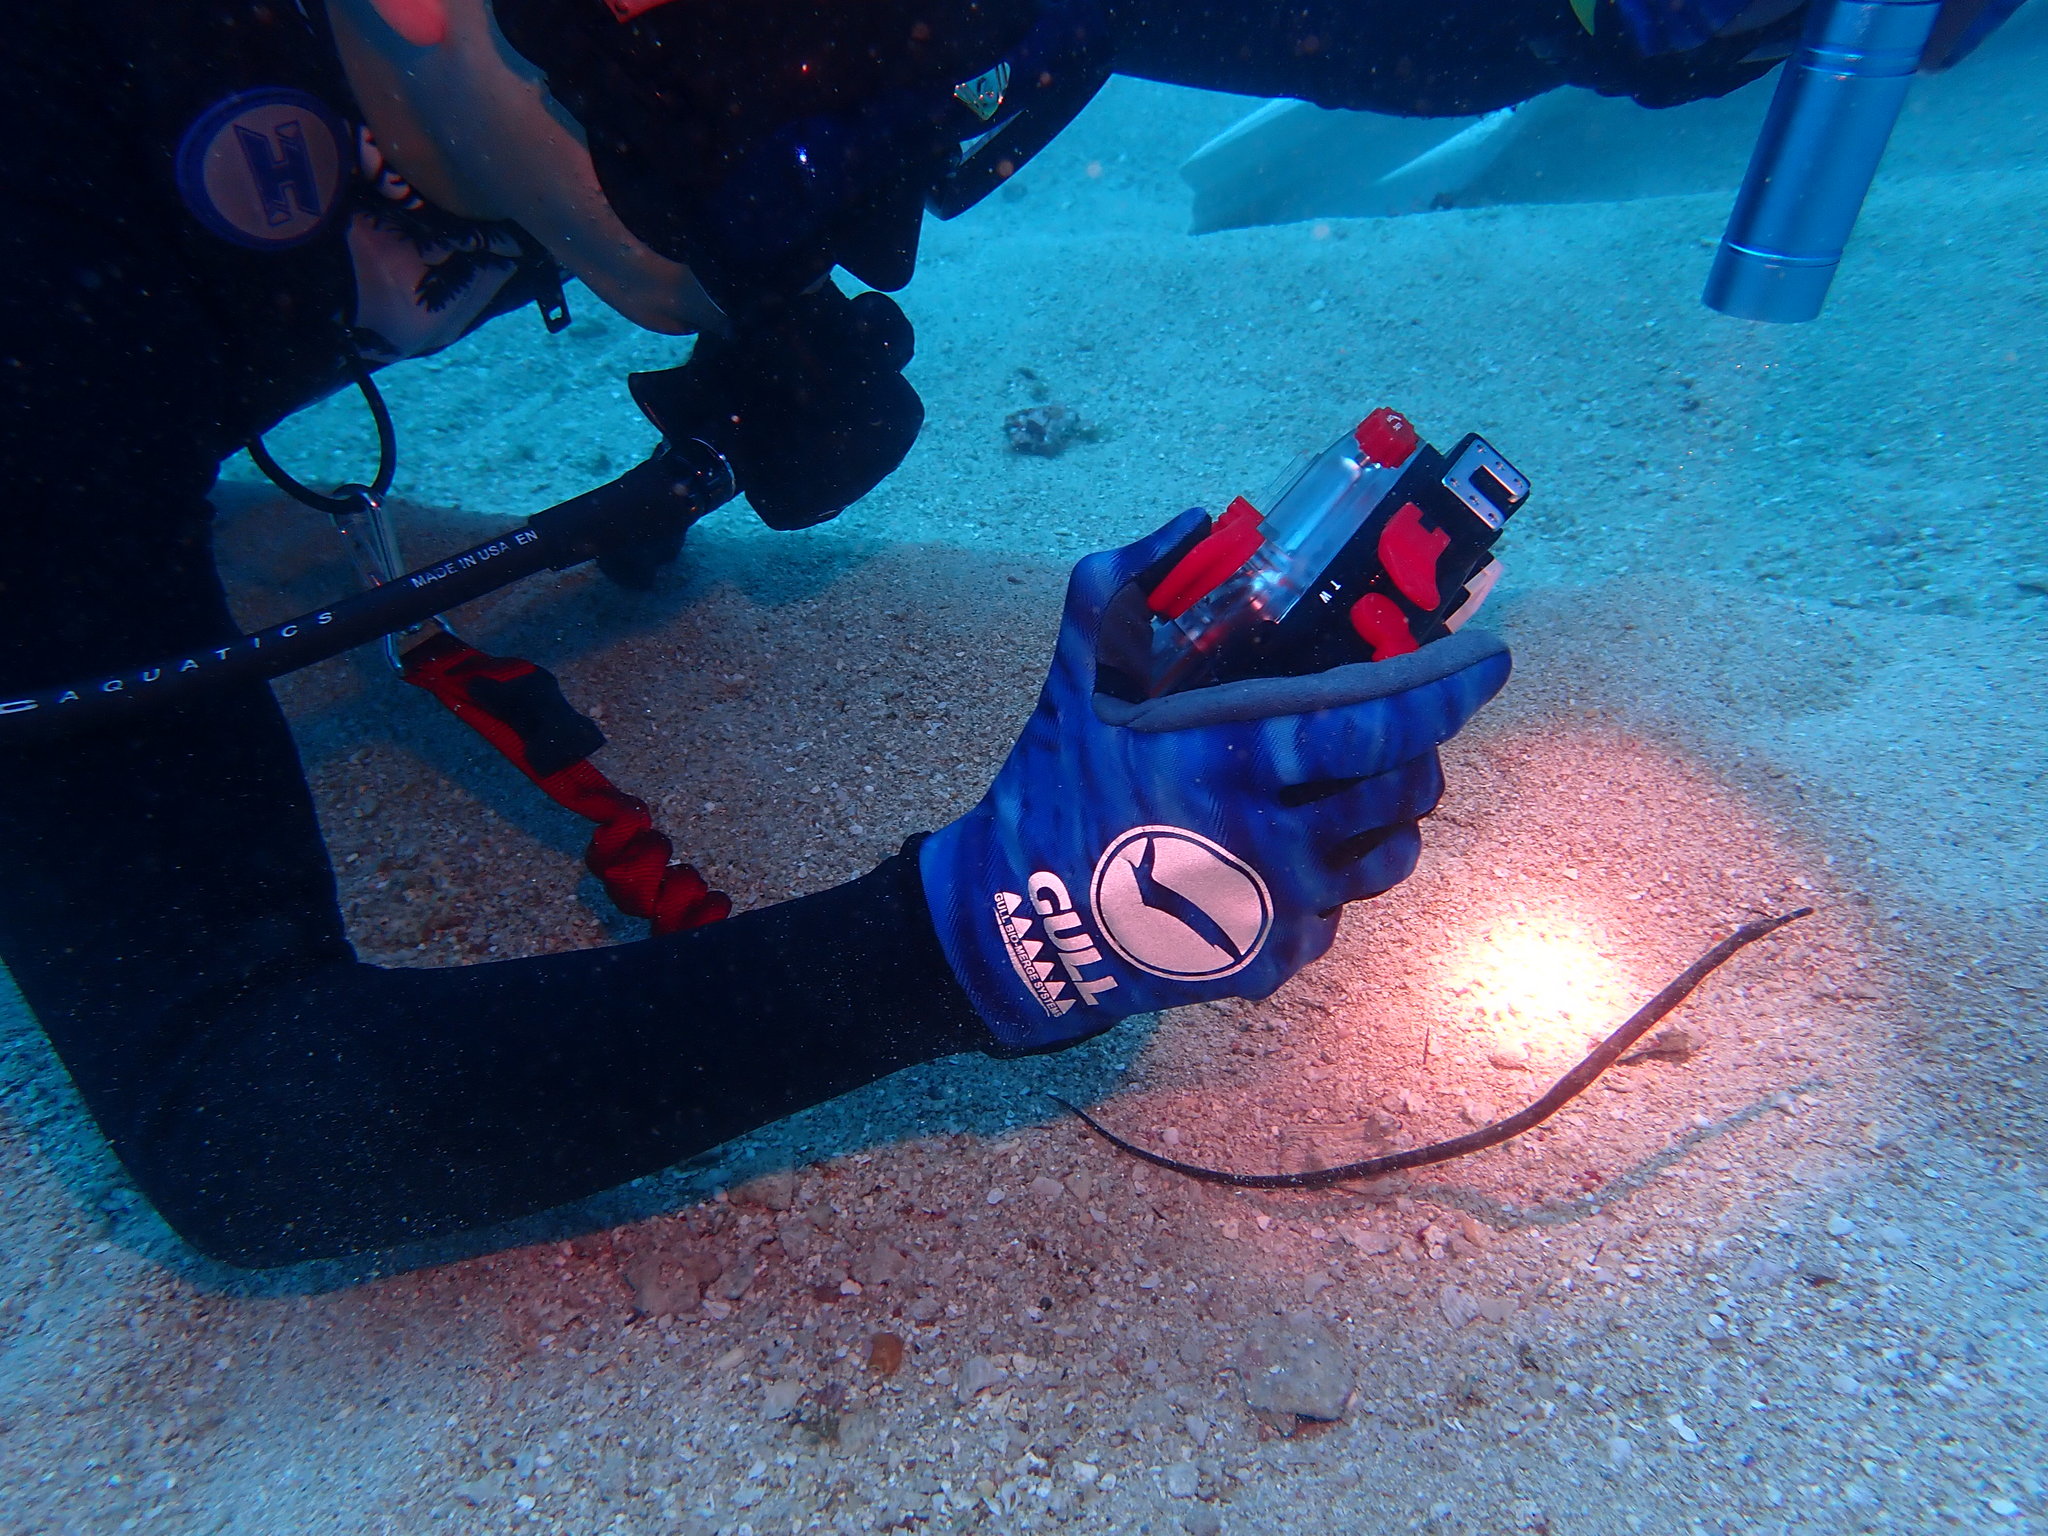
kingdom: Animalia
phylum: Chordata
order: Syngnathiformes
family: Syngnathidae
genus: Trachyrhamphus
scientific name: Trachyrhamphus bicoarctatus
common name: Double-ended pipefish
